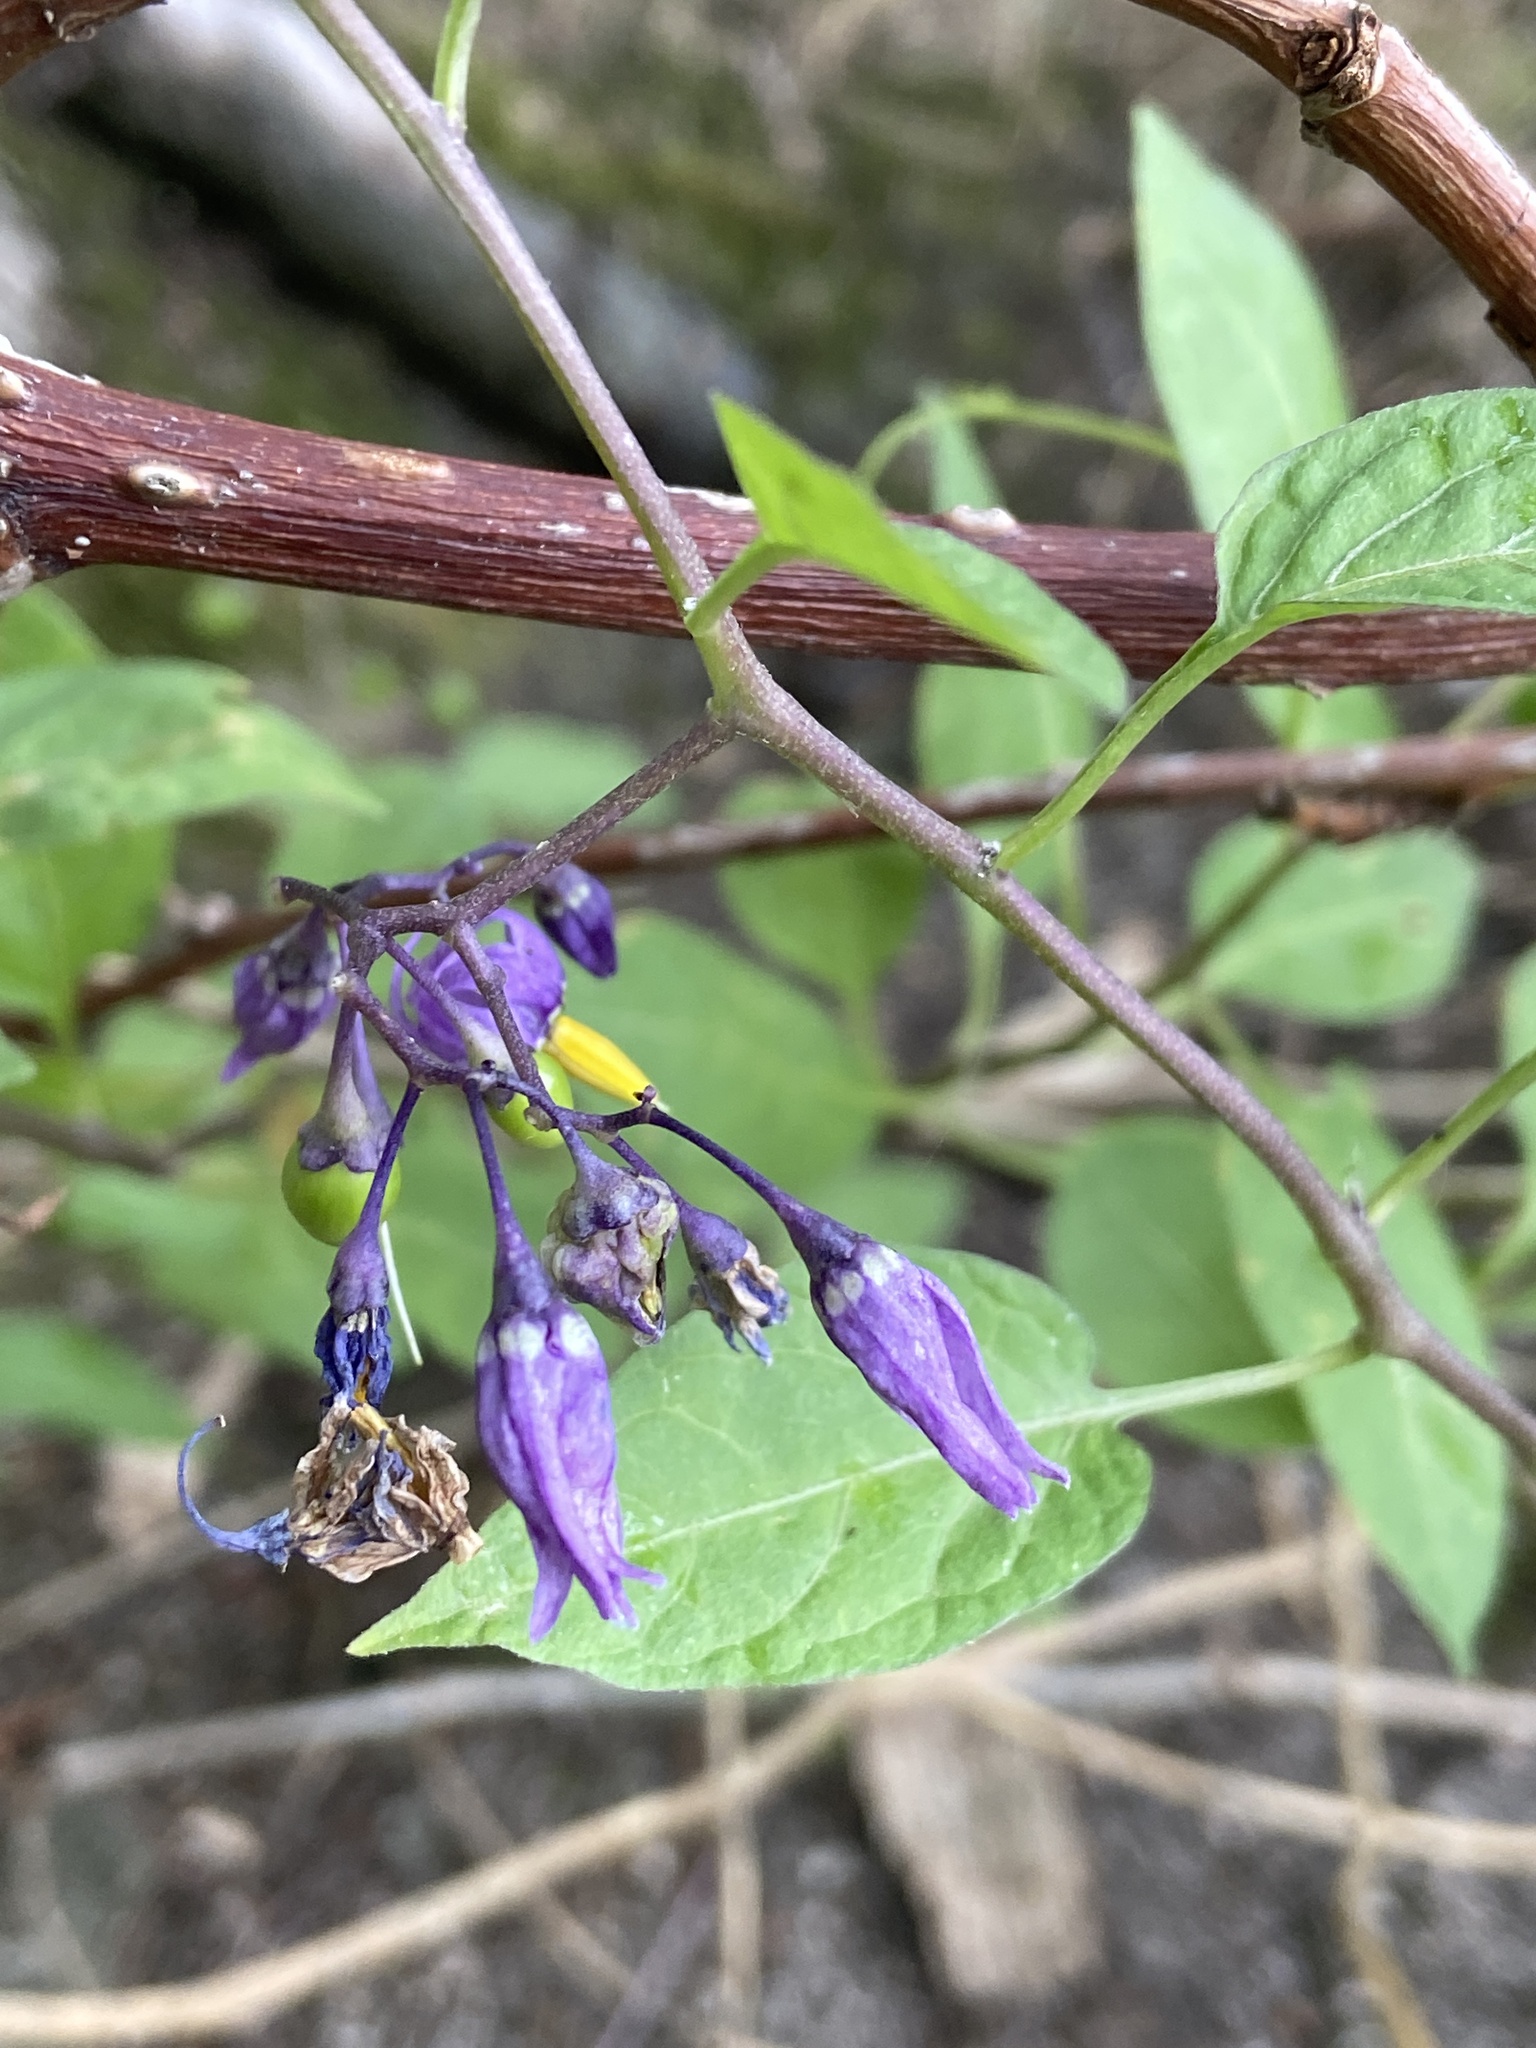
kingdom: Plantae
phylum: Tracheophyta
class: Magnoliopsida
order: Solanales
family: Solanaceae
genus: Solanum
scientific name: Solanum dulcamara
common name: Climbing nightshade
